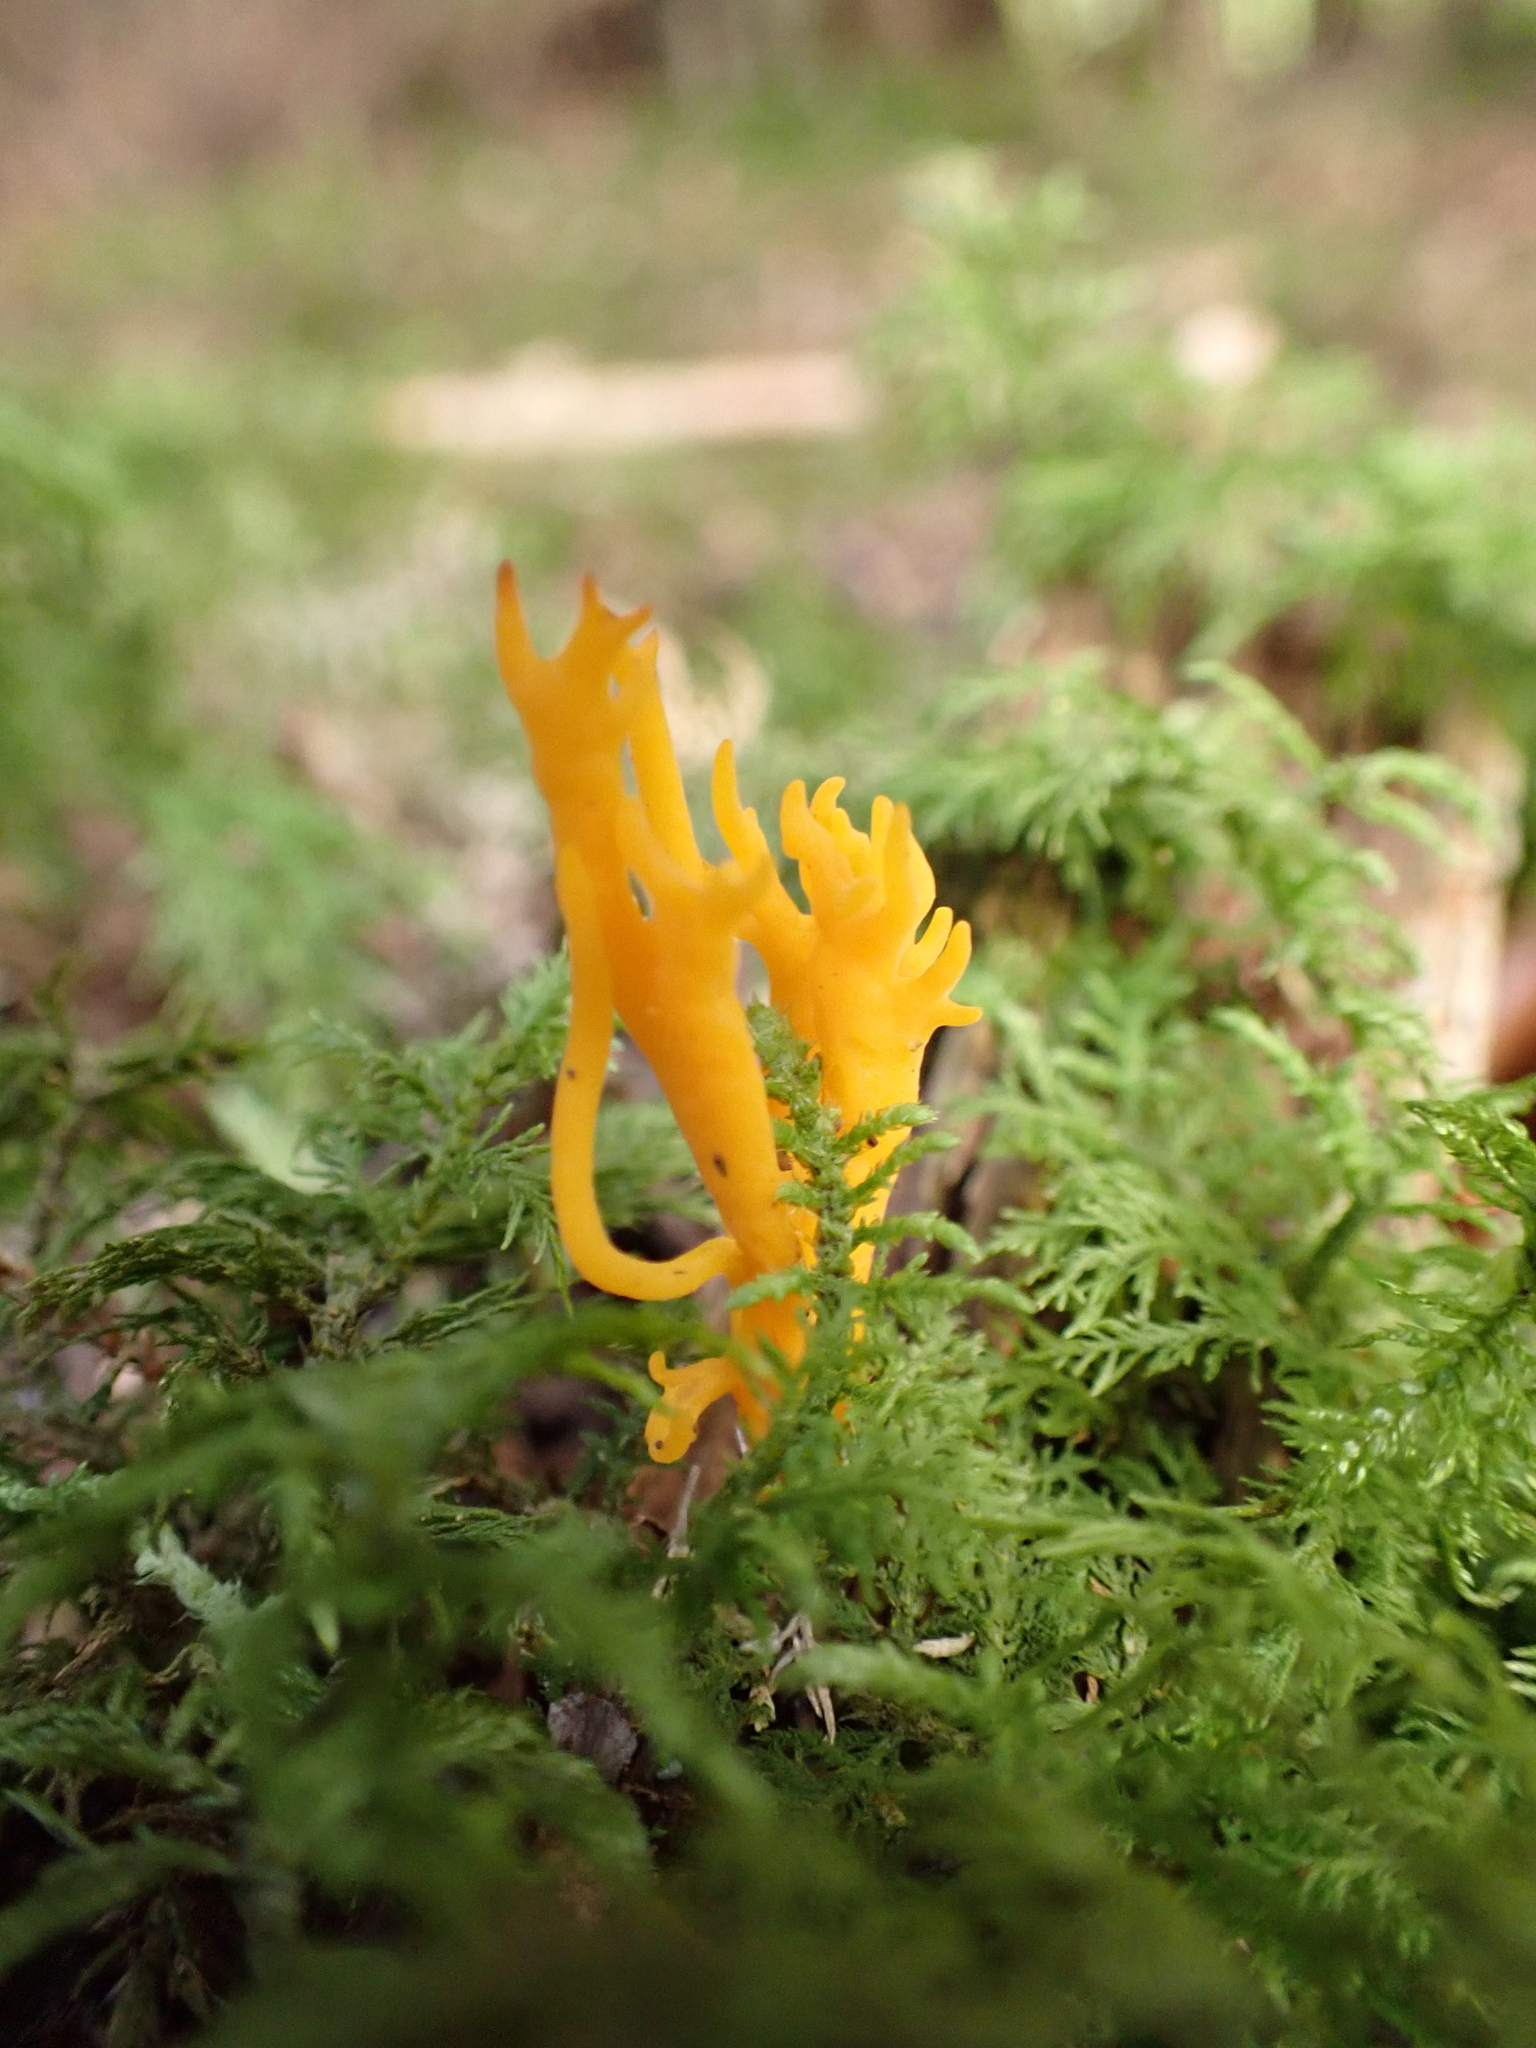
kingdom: Fungi
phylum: Basidiomycota
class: Dacrymycetes
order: Dacrymycetales
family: Dacrymycetaceae
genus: Calocera
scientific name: Calocera viscosa
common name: Yellow stagshorn
